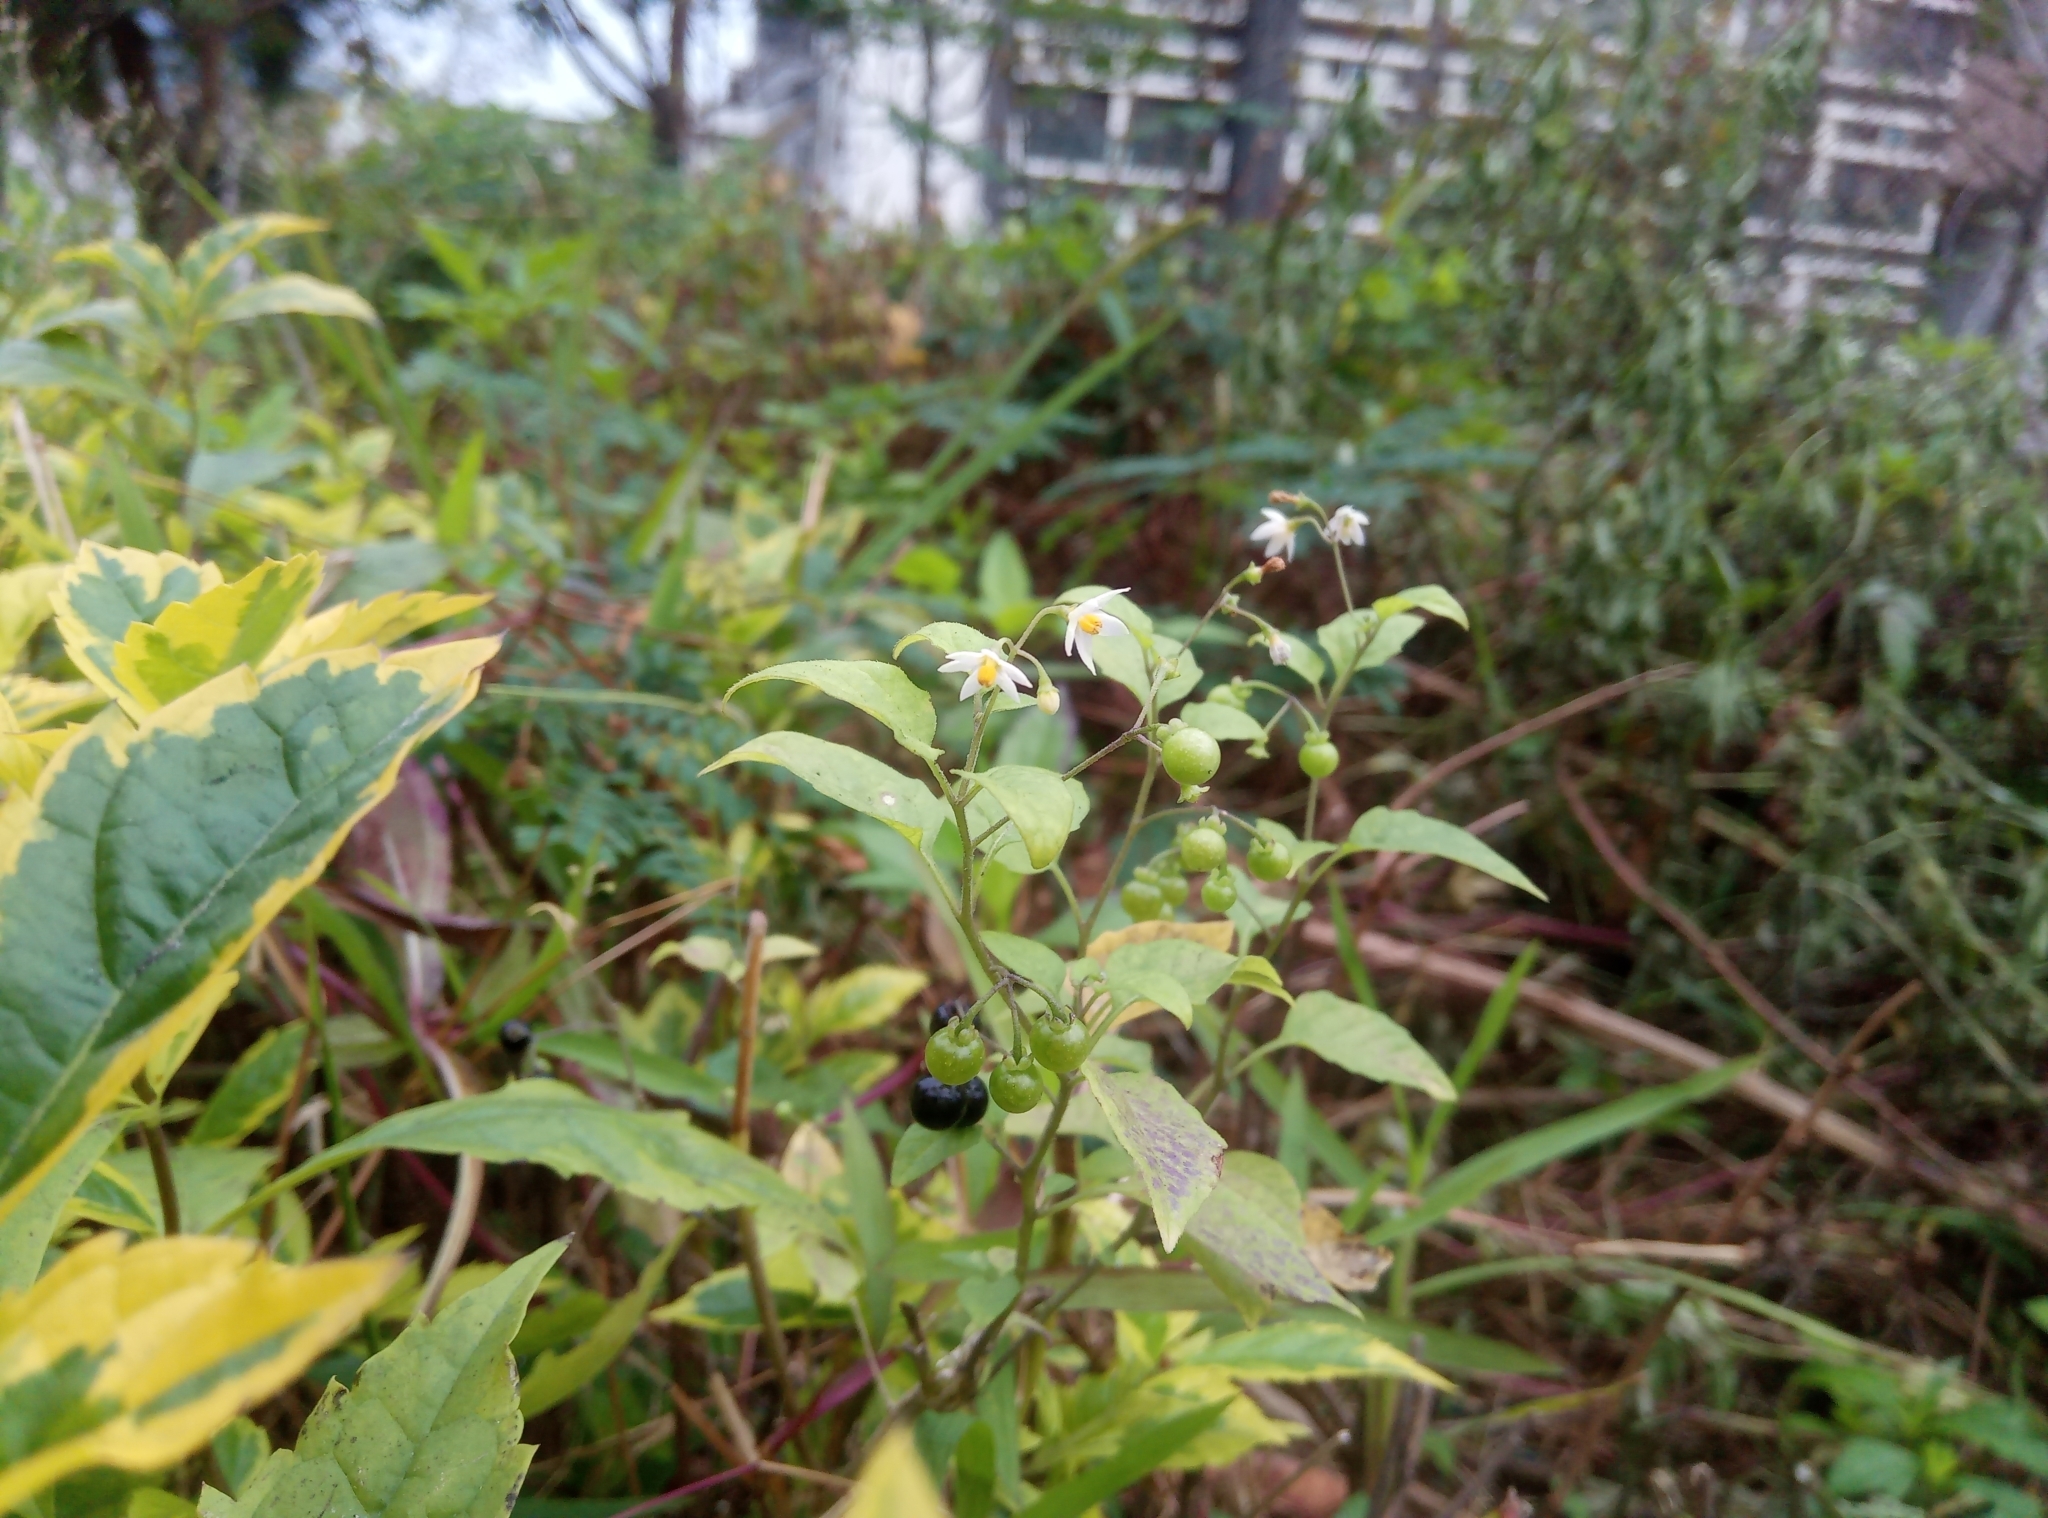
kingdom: Plantae
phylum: Tracheophyta
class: Magnoliopsida
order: Solanales
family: Solanaceae
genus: Solanum
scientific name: Solanum americanum
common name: American black nightshade
